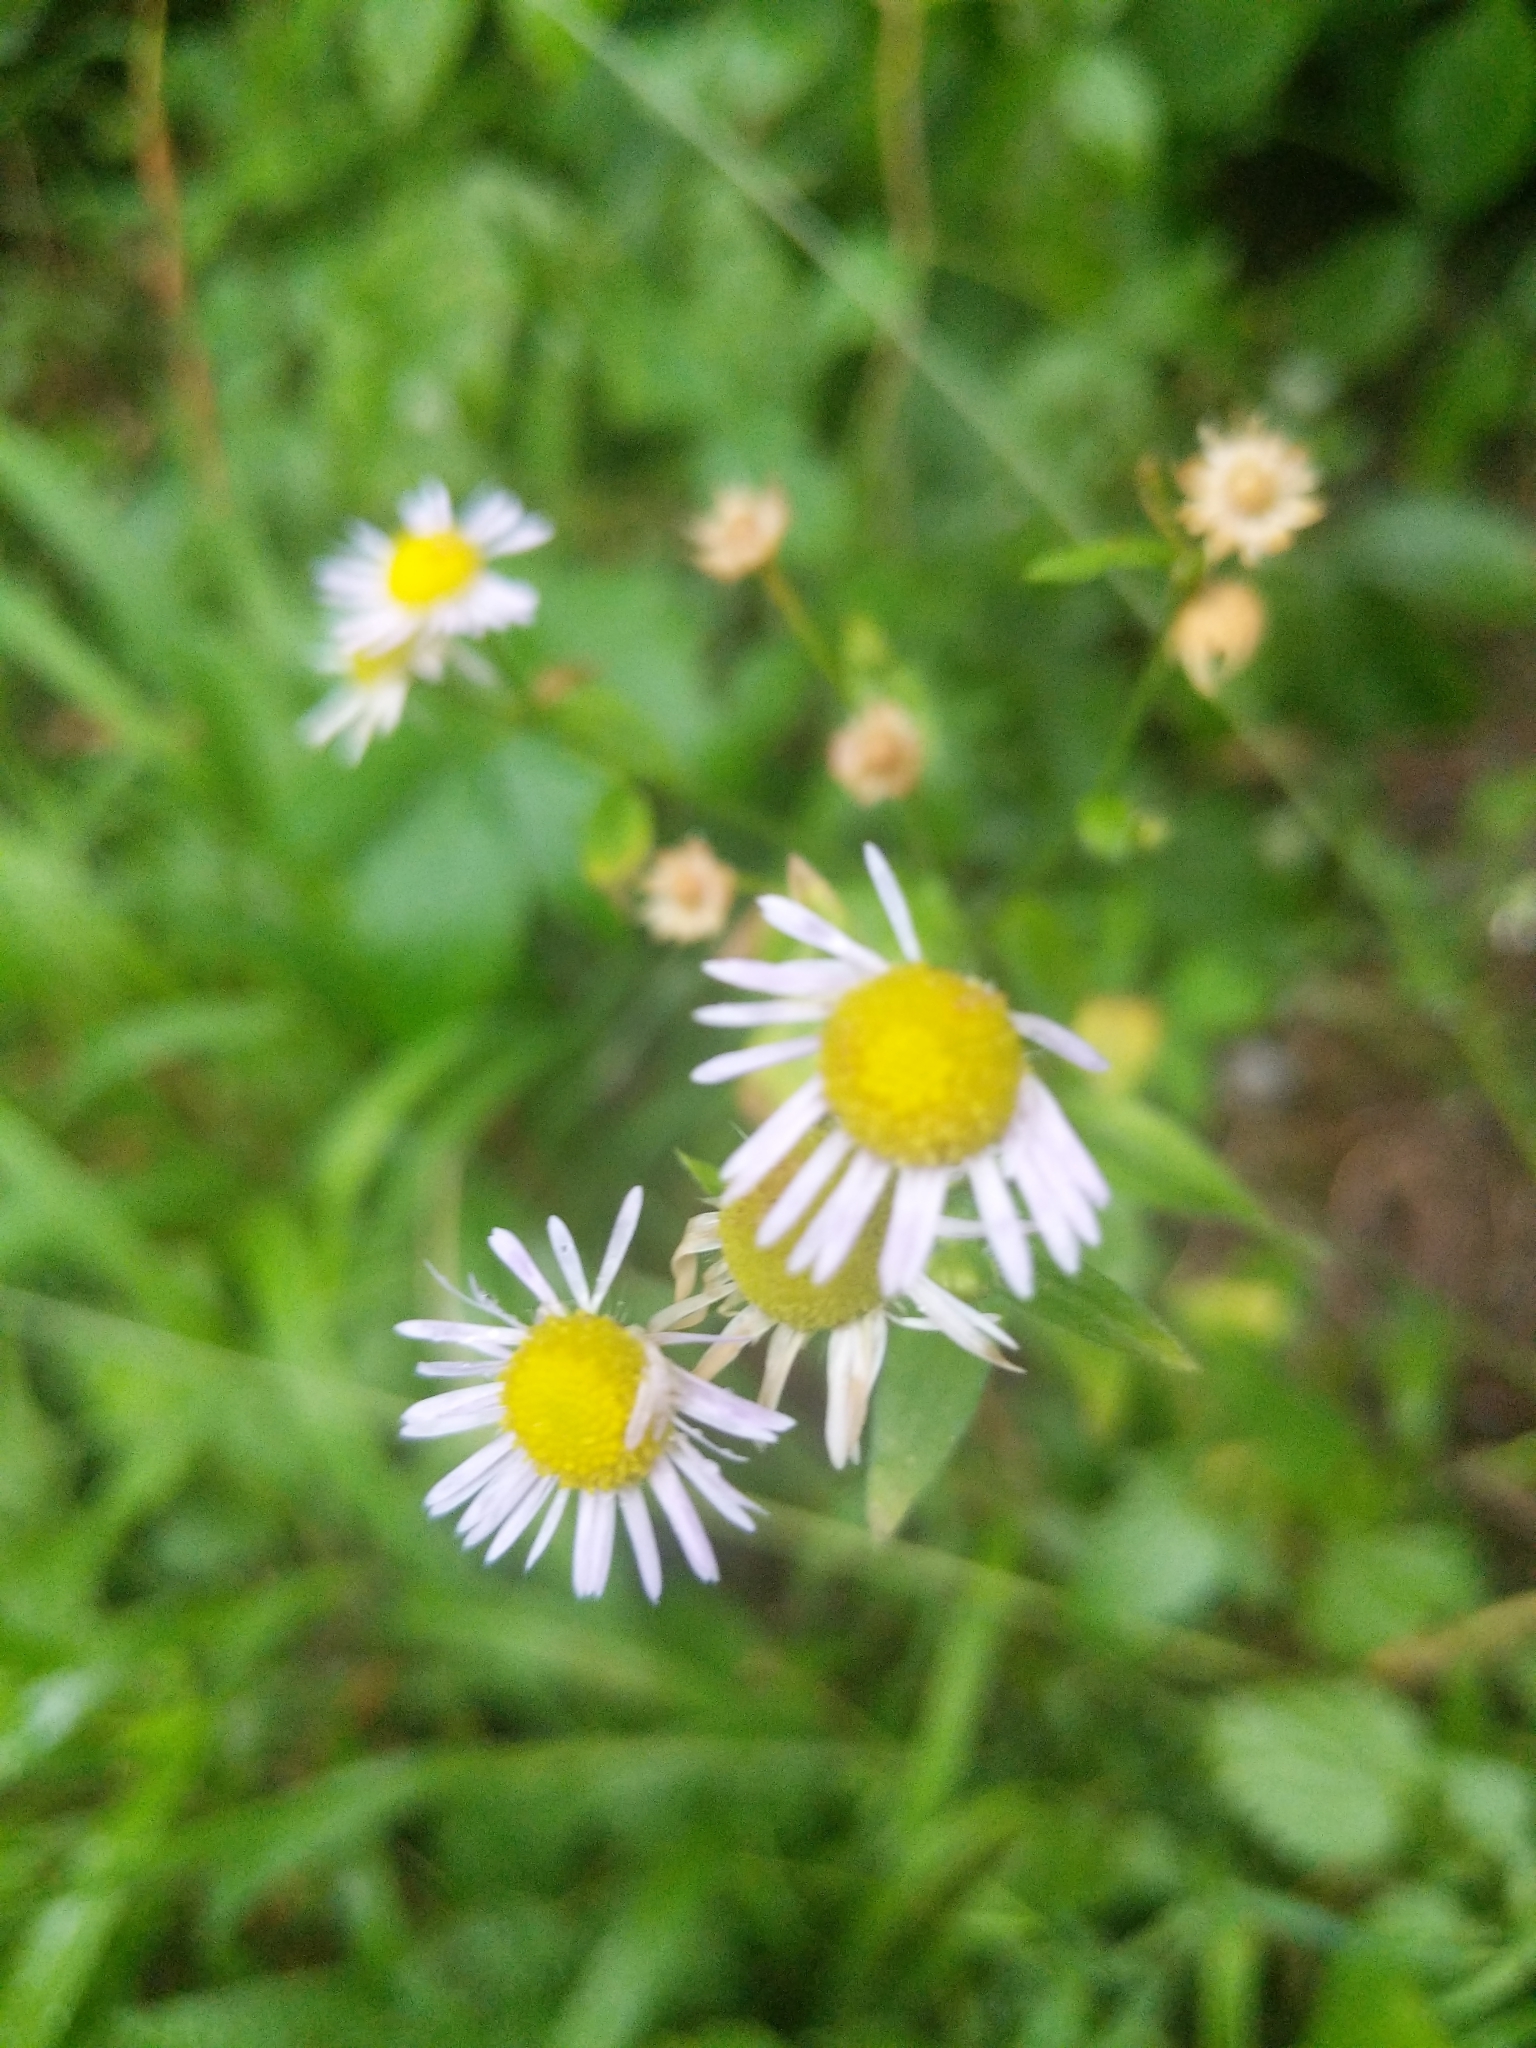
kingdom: Plantae
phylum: Tracheophyta
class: Magnoliopsida
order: Asterales
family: Asteraceae
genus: Erigeron
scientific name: Erigeron annuus
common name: Tall fleabane
